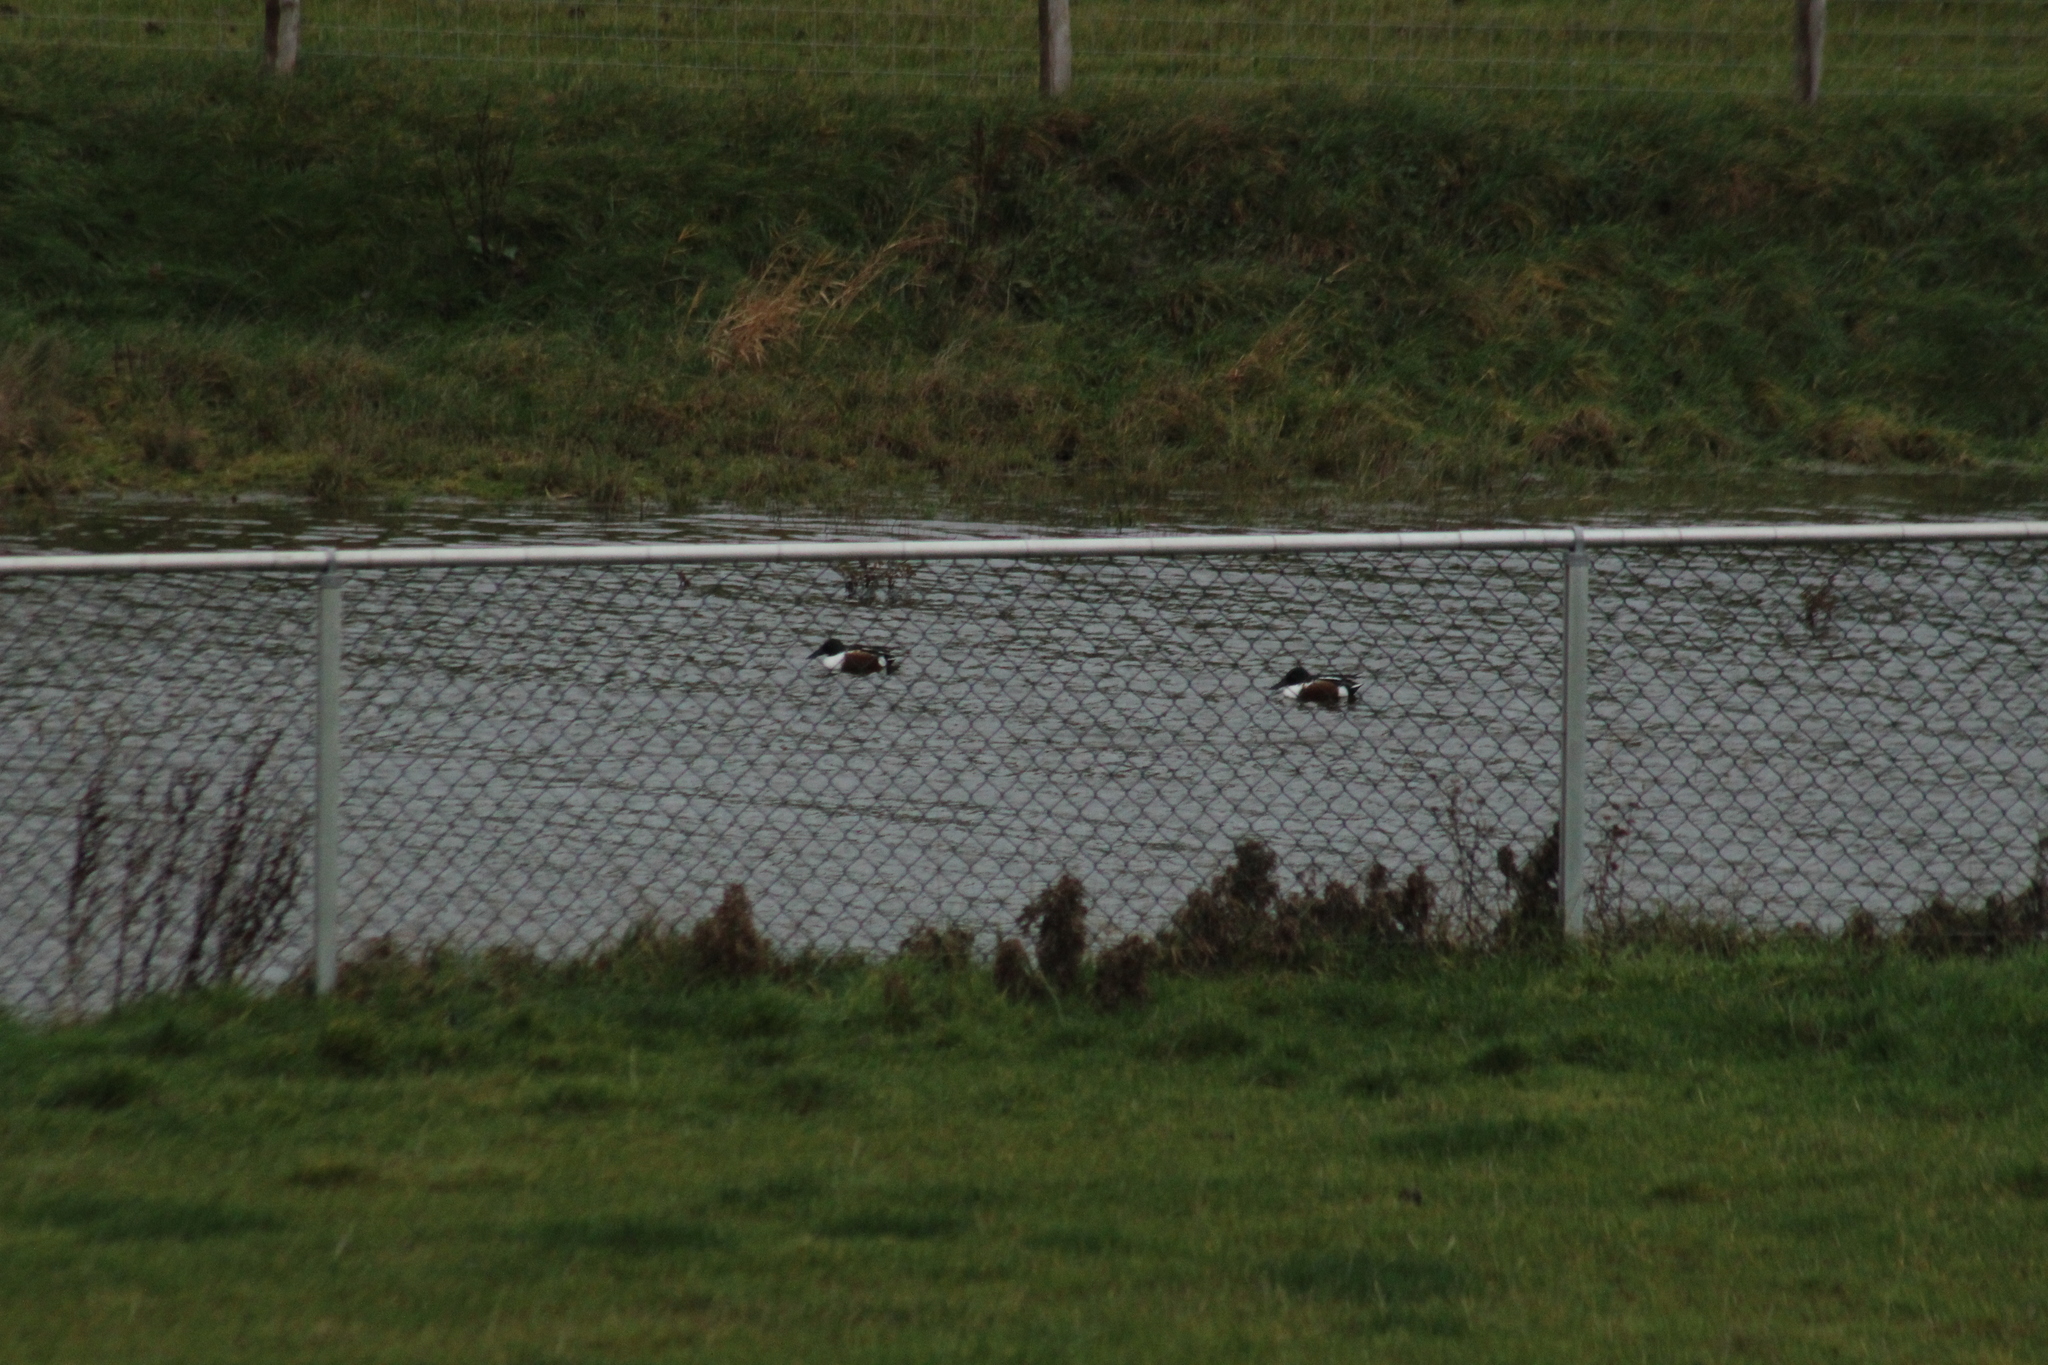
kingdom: Animalia
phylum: Chordata
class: Aves
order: Anseriformes
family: Anatidae
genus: Spatula
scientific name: Spatula clypeata
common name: Northern shoveler
